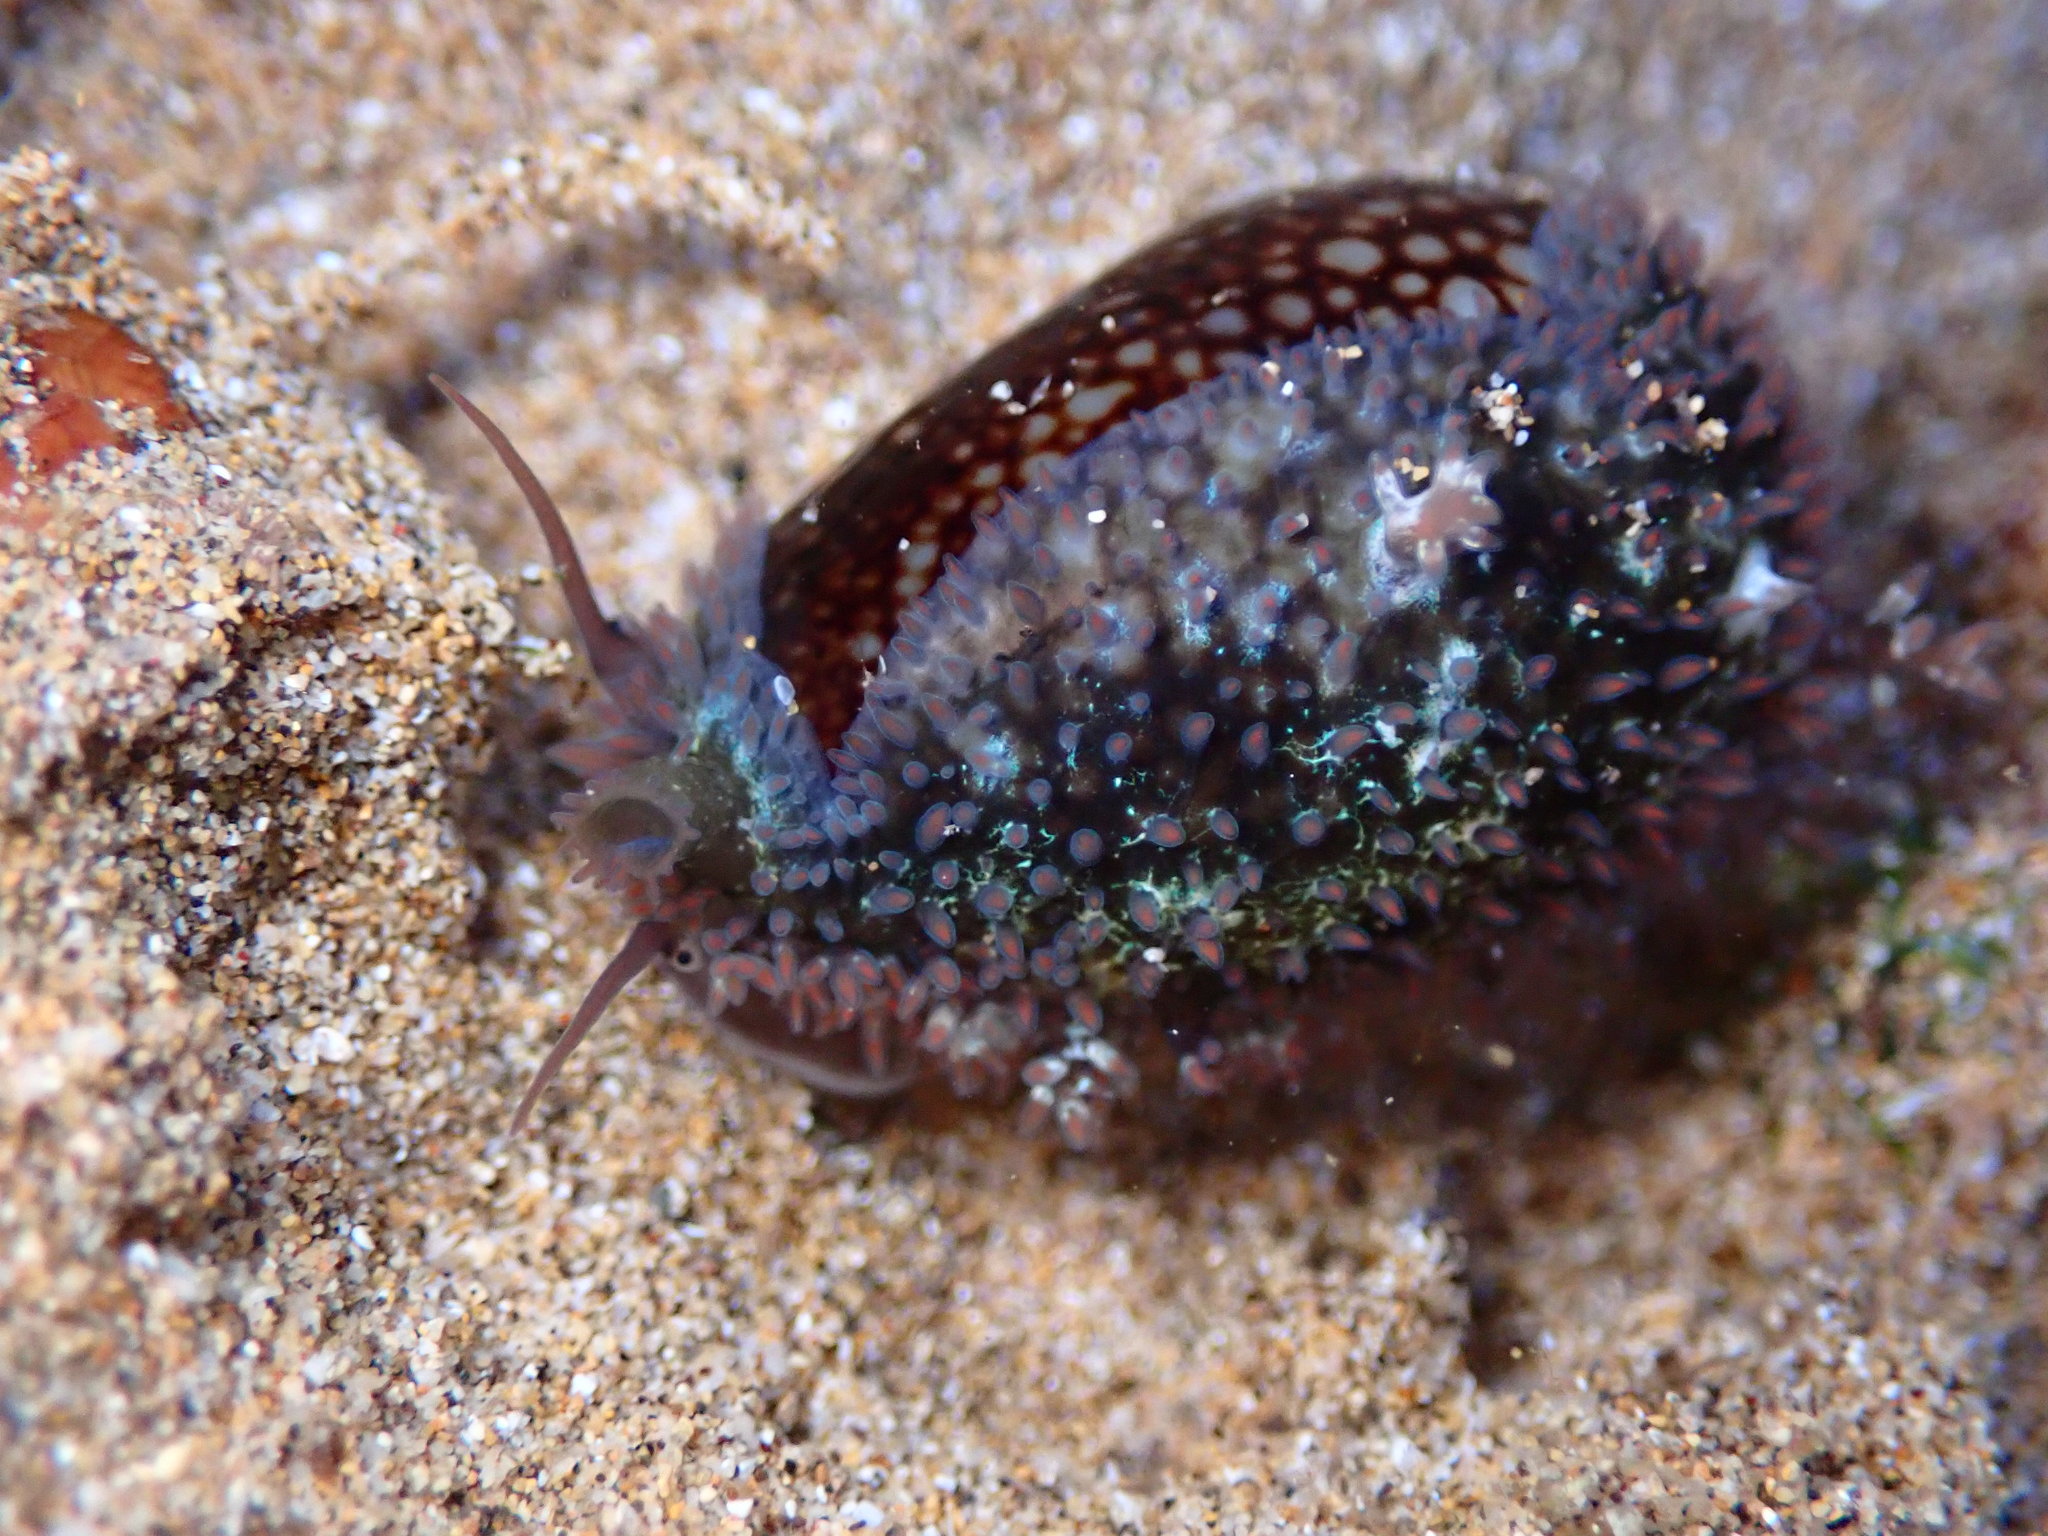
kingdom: Animalia
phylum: Mollusca
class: Gastropoda
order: Littorinimorpha
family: Cypraeidae
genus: Monetaria
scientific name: Monetaria caputophidii
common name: Snake's head cowry
